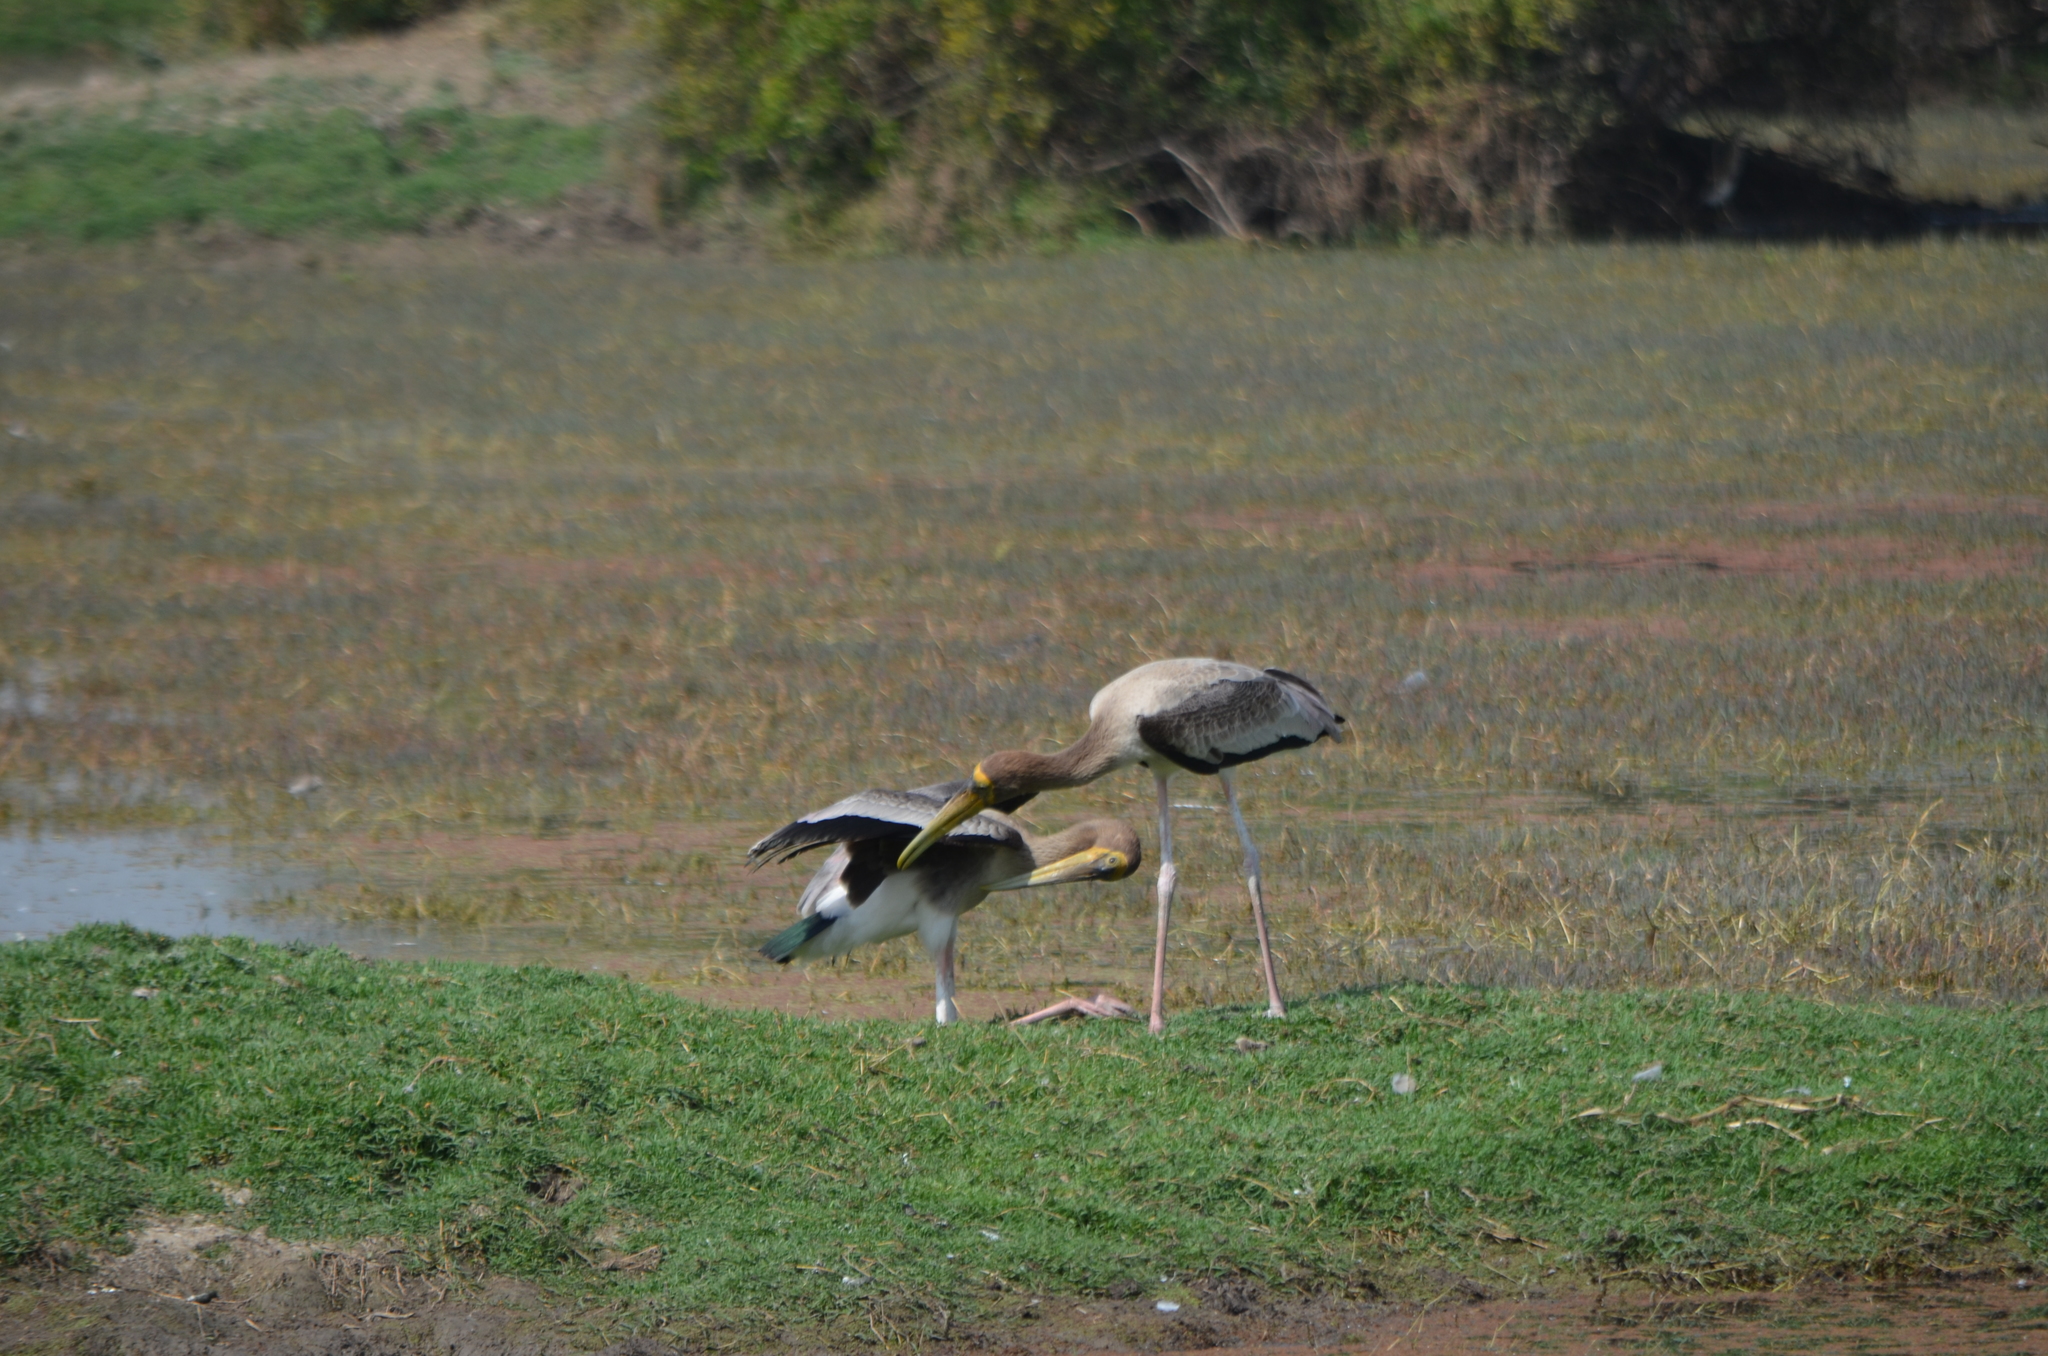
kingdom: Animalia
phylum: Chordata
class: Aves
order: Ciconiiformes
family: Ciconiidae
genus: Mycteria
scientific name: Mycteria leucocephala
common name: Painted stork
